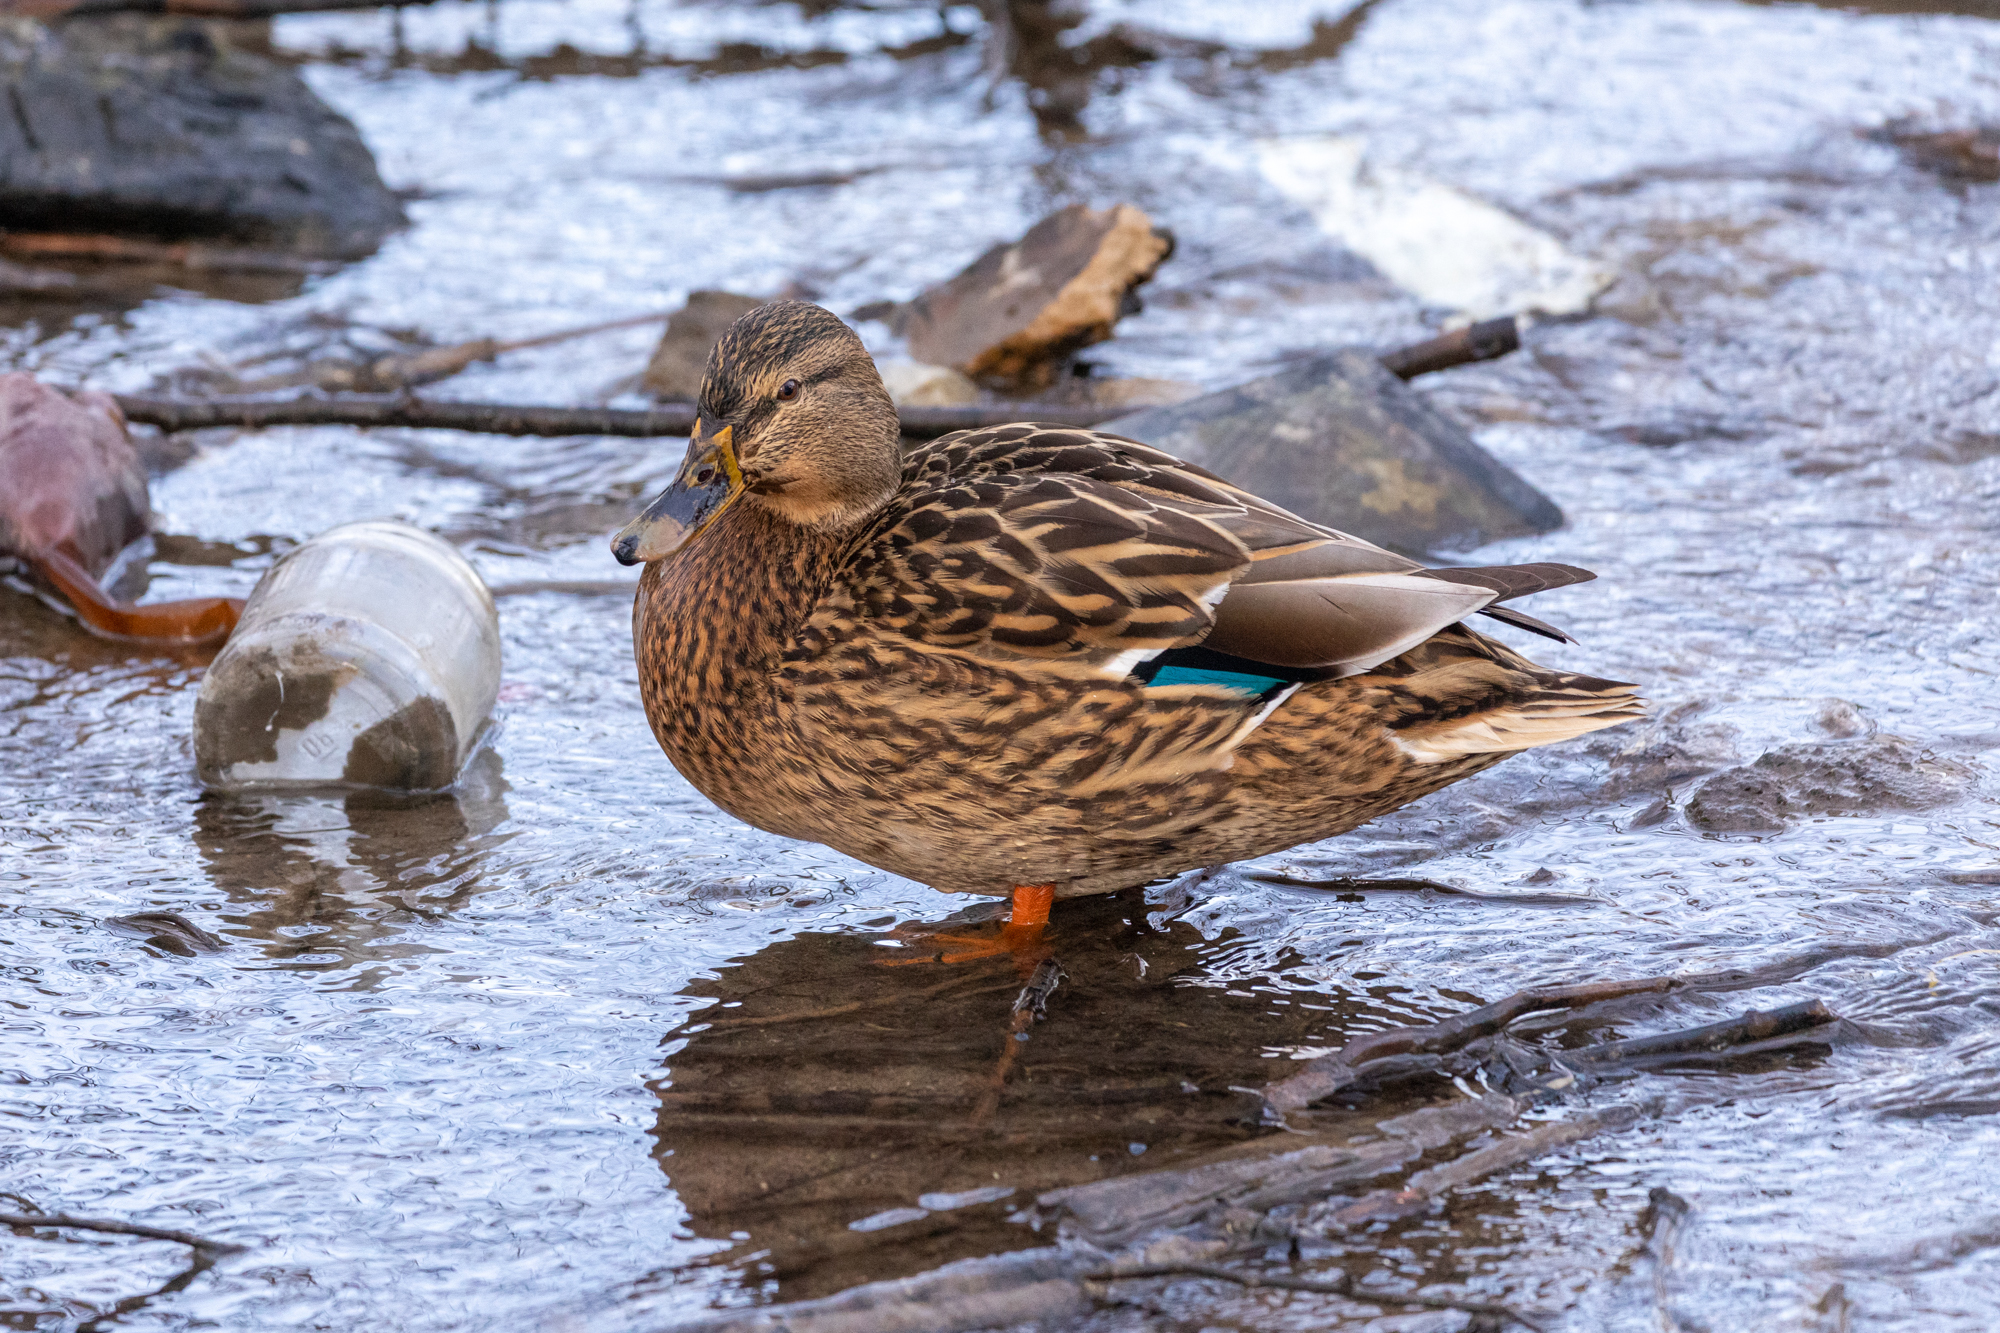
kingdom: Animalia
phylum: Chordata
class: Aves
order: Anseriformes
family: Anatidae
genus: Anas
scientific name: Anas platyrhynchos
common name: Mallard
